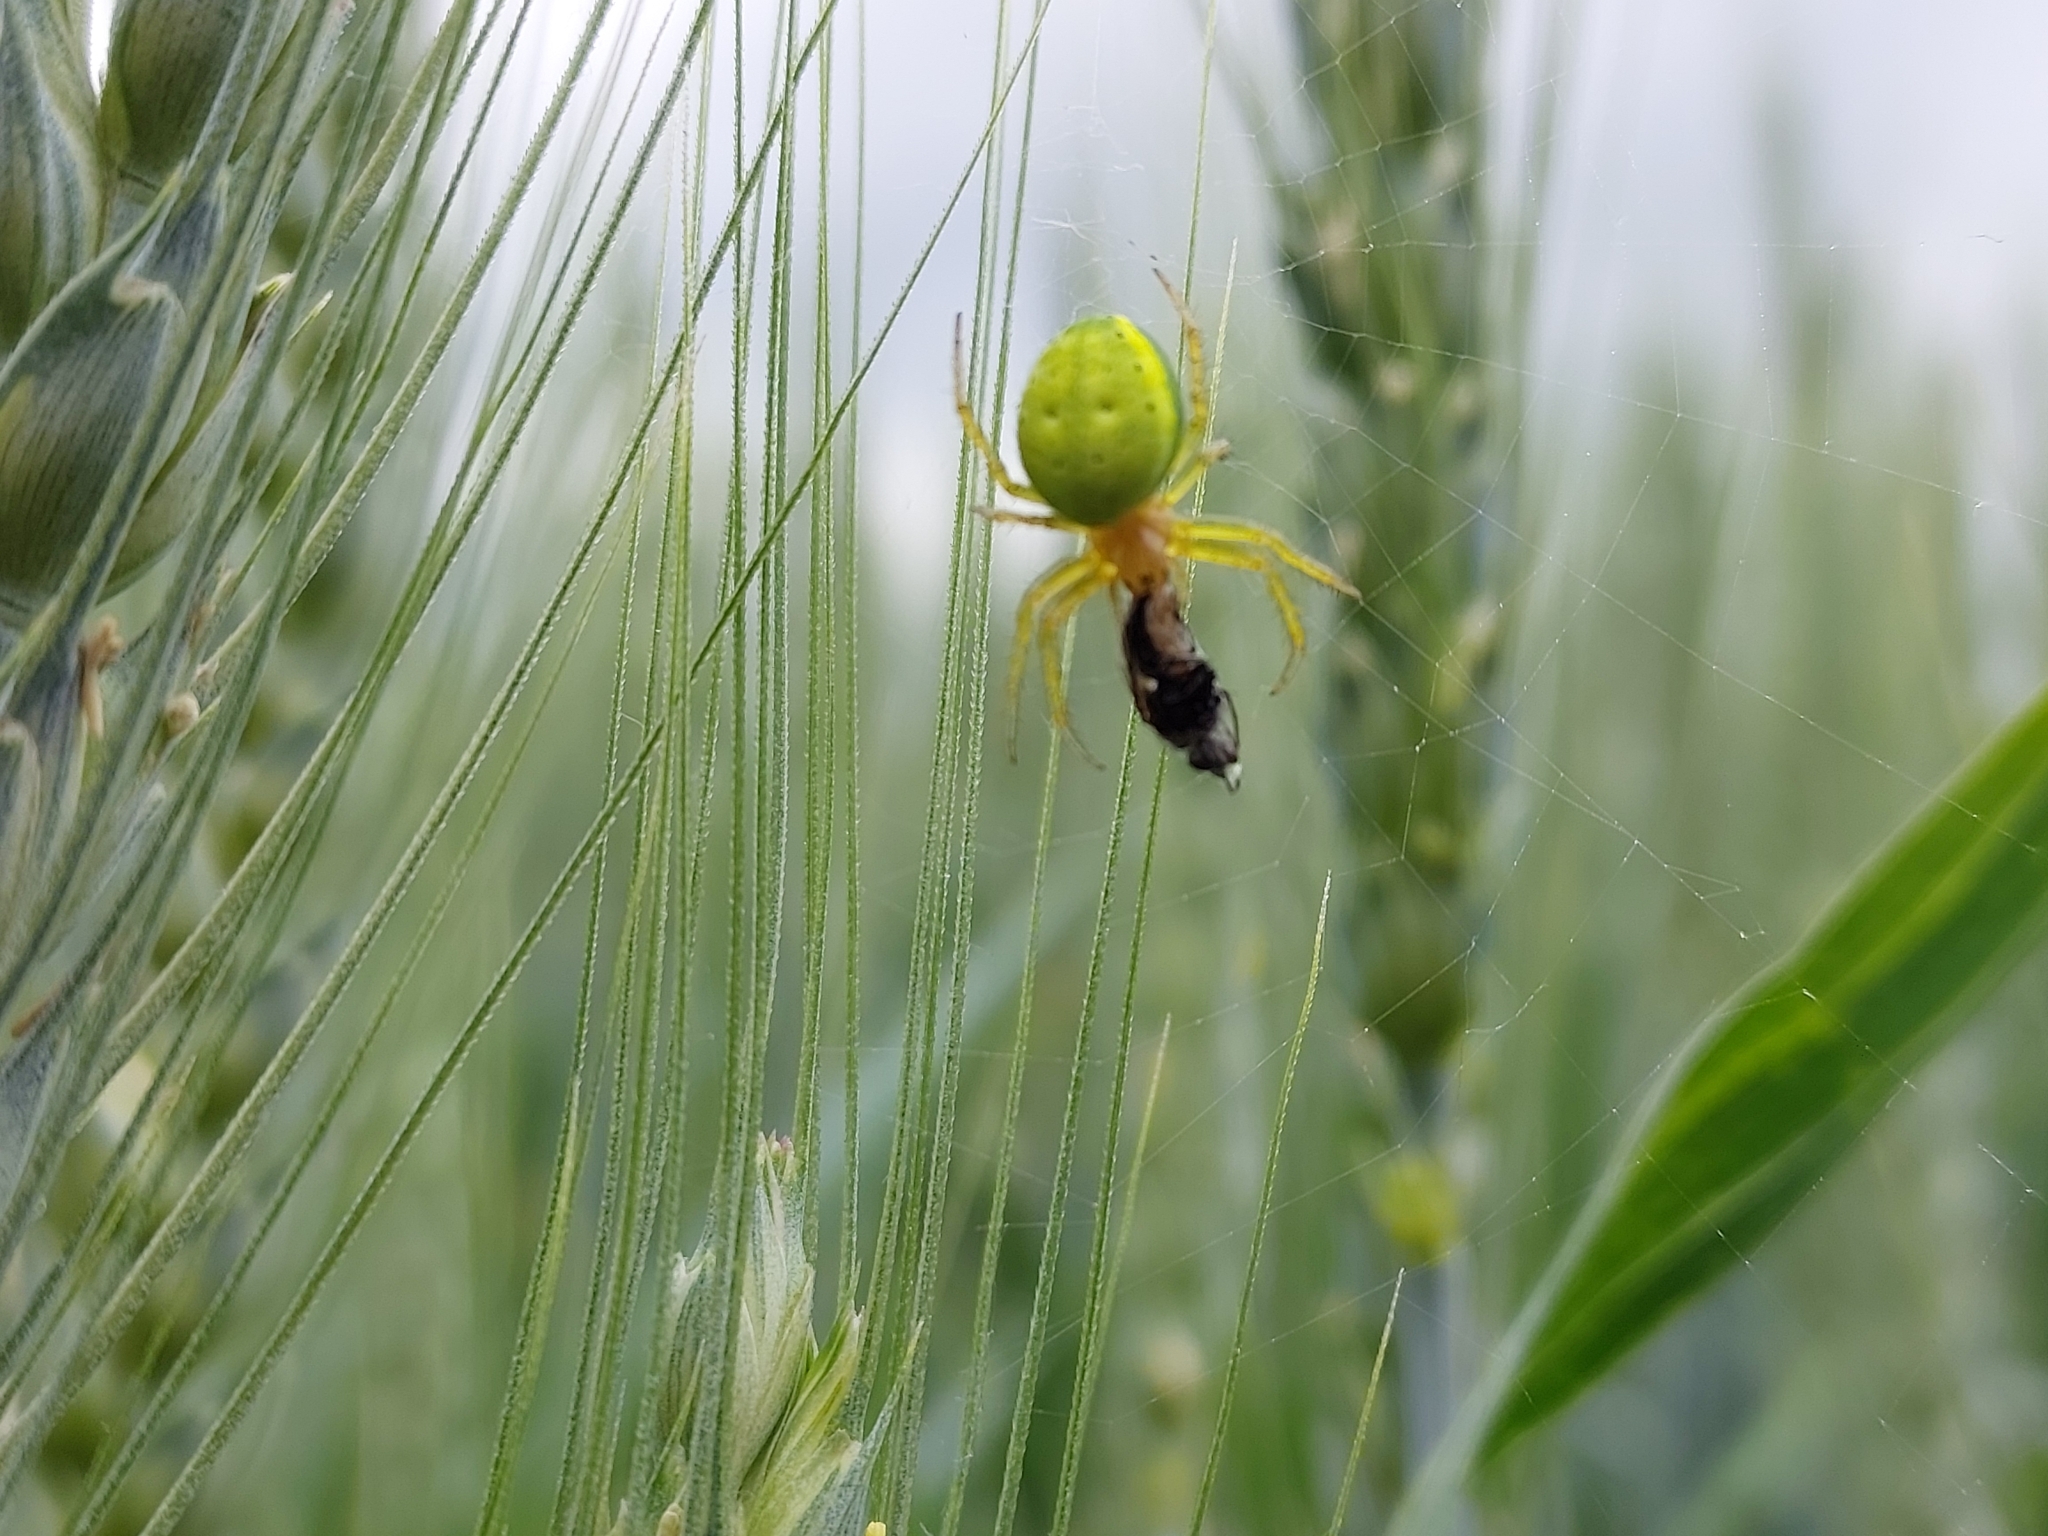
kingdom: Animalia
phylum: Arthropoda
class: Arachnida
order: Araneae
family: Araneidae
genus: Araniella
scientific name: Araniella
